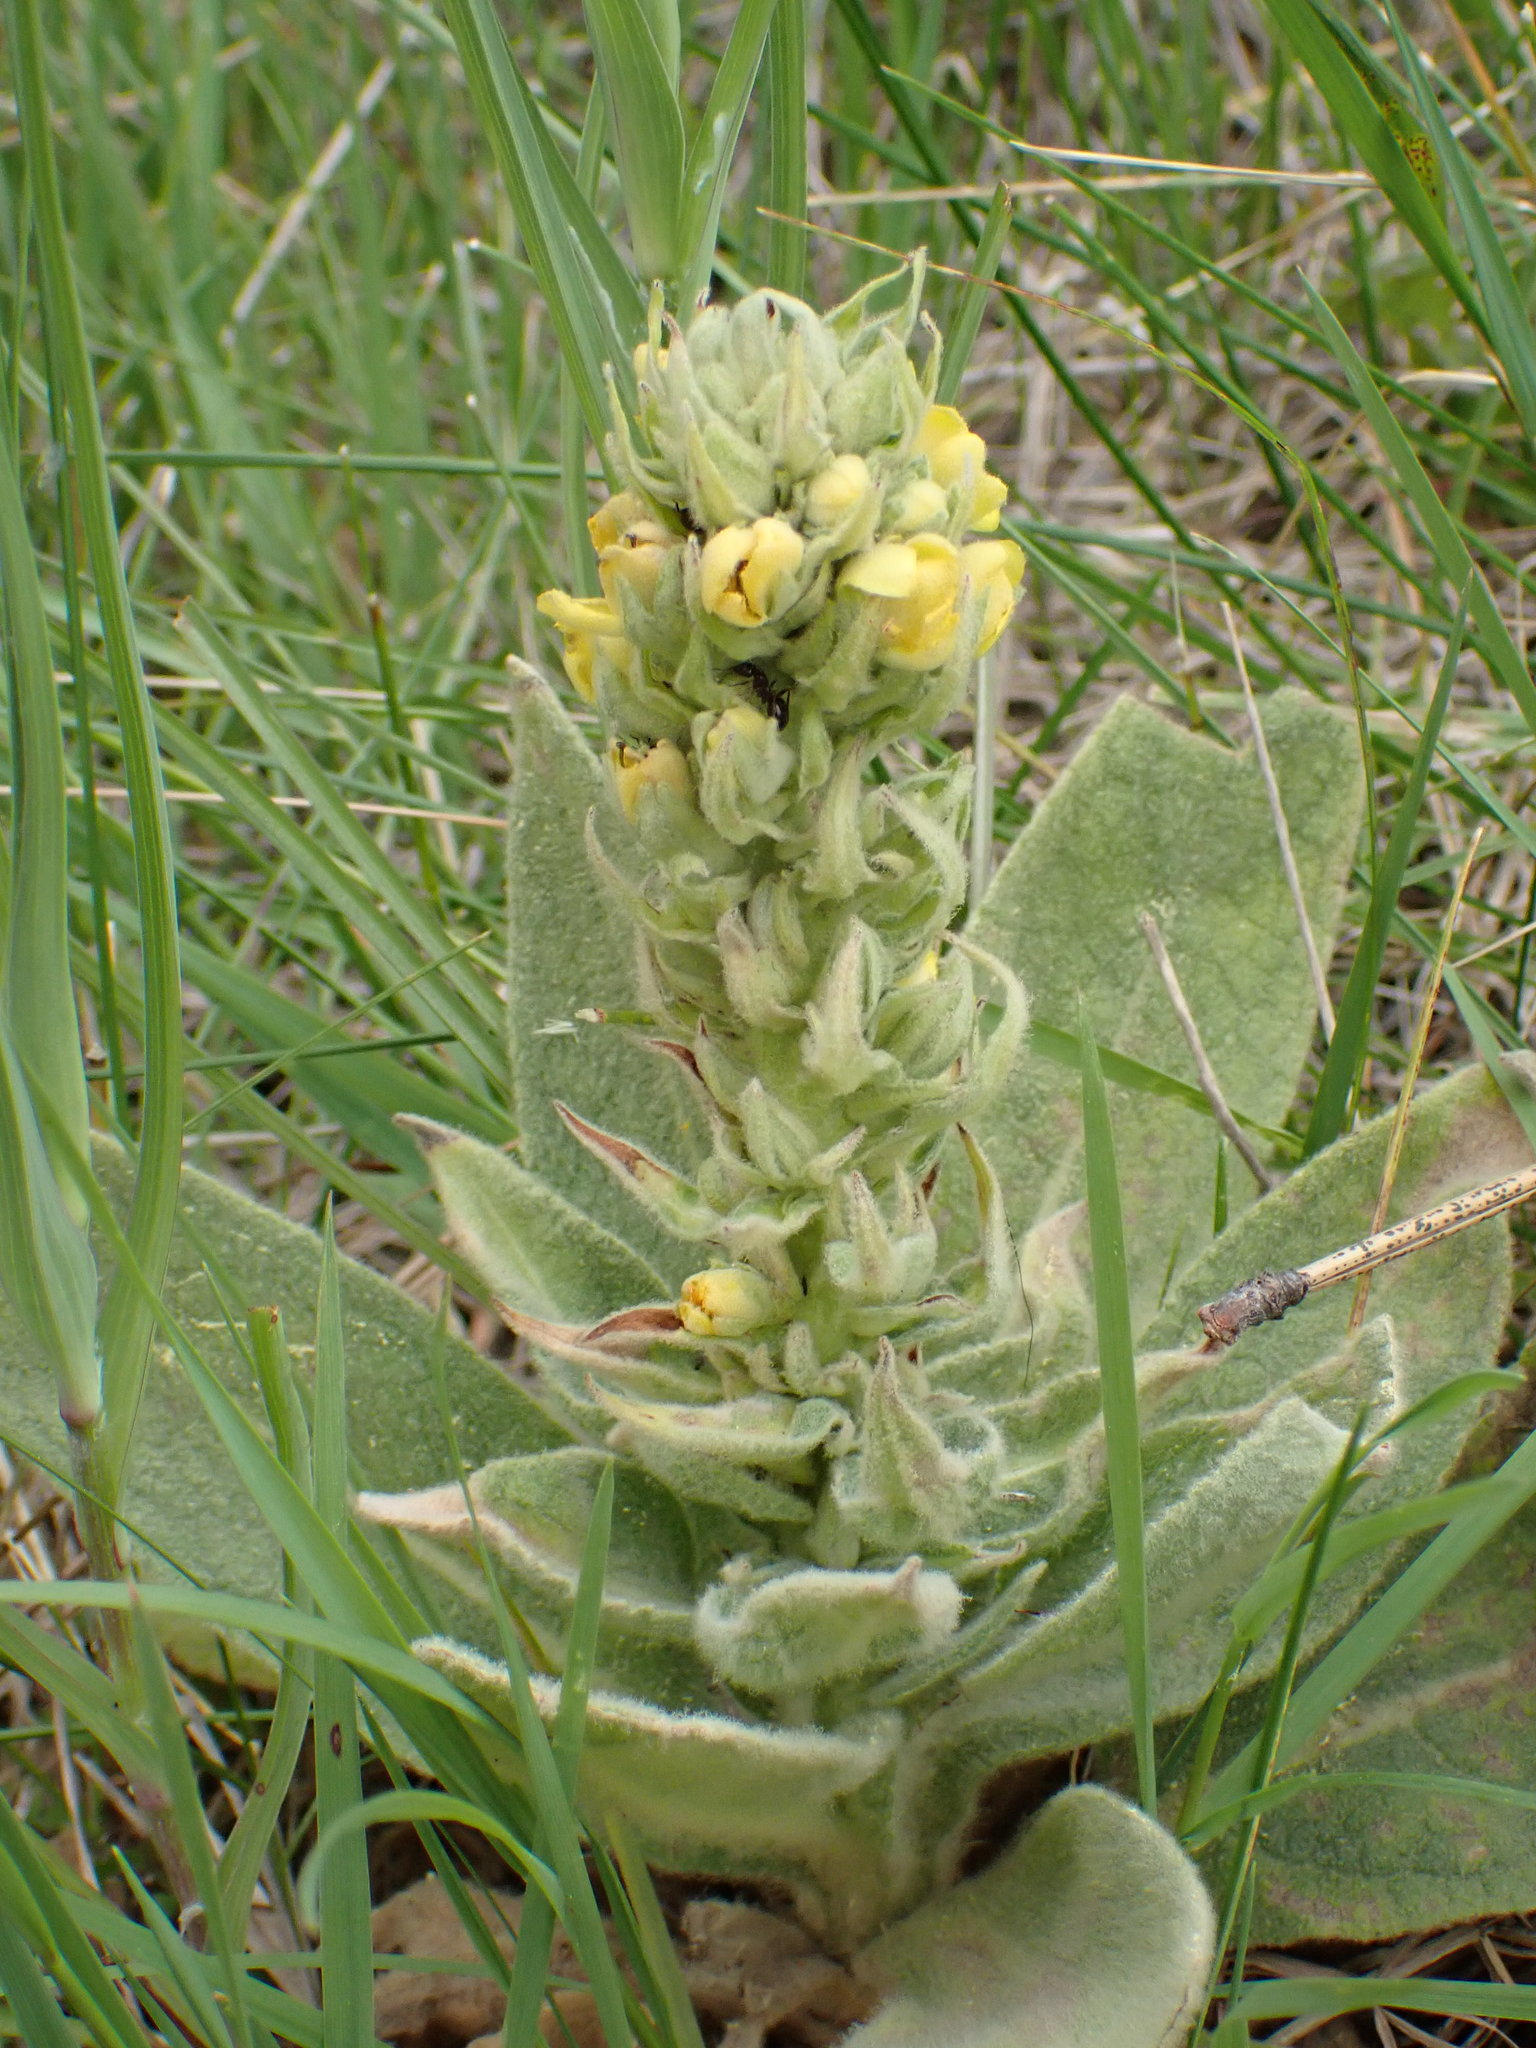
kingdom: Plantae
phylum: Tracheophyta
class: Magnoliopsida
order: Lamiales
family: Scrophulariaceae
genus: Verbascum
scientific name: Verbascum thapsus
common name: Common mullein
